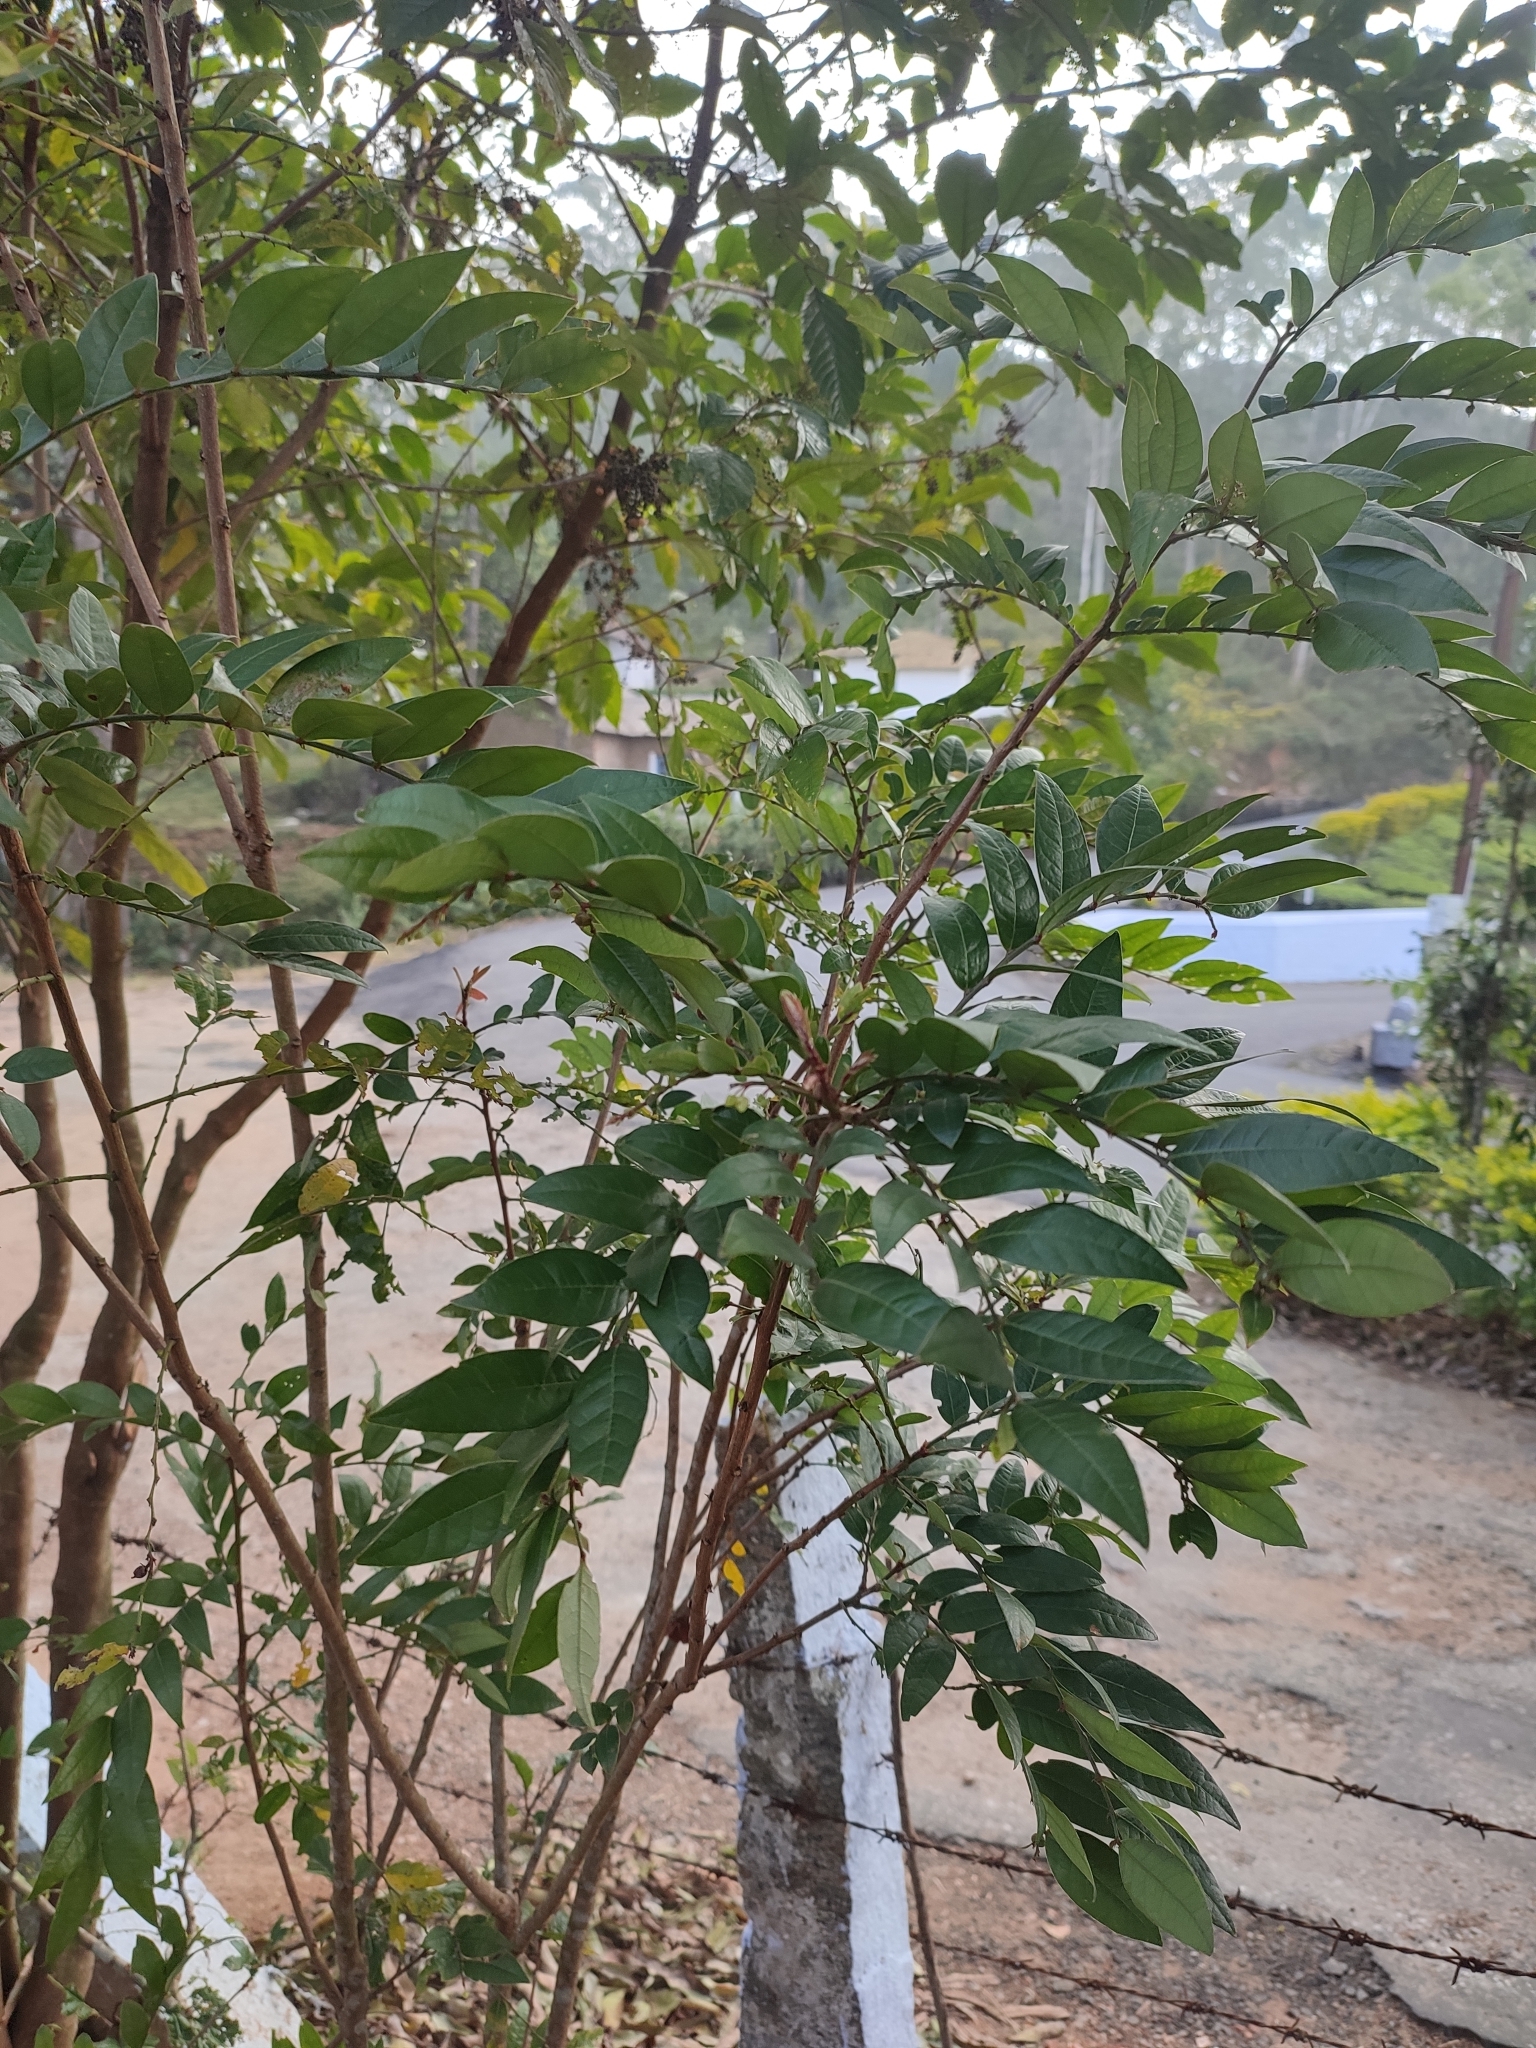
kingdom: Plantae
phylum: Tracheophyta
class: Magnoliopsida
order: Malpighiales
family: Phyllanthaceae
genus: Phyllanthus
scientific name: Phyllanthus anamalayanus
